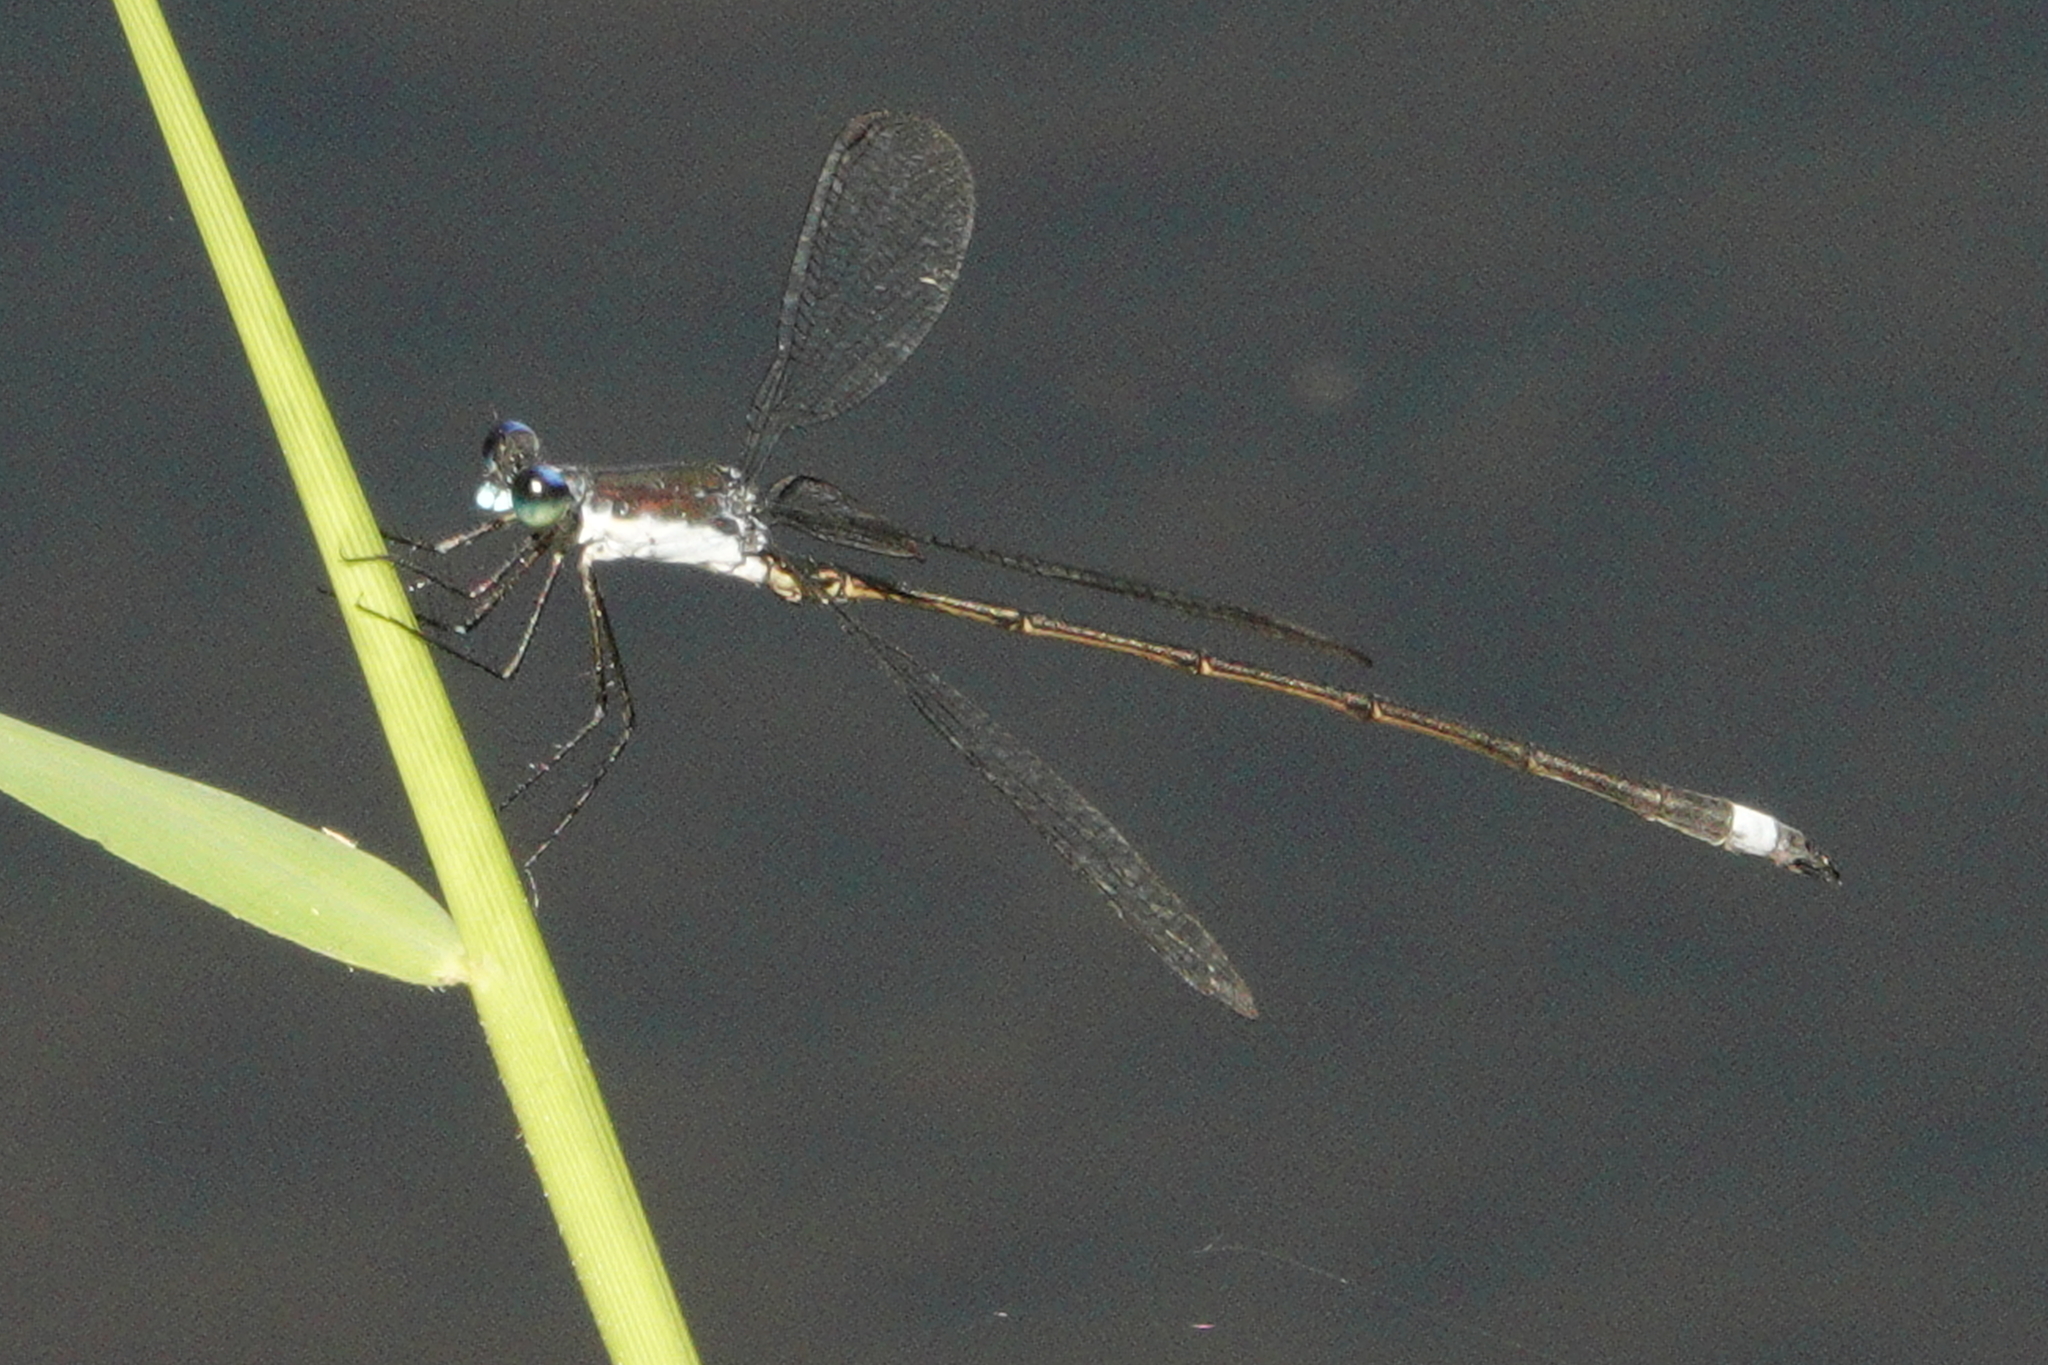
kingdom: Animalia
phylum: Arthropoda
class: Insecta
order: Odonata
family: Lestidae
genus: Lestes
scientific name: Lestes vigilax
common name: Swamp spreadwing
